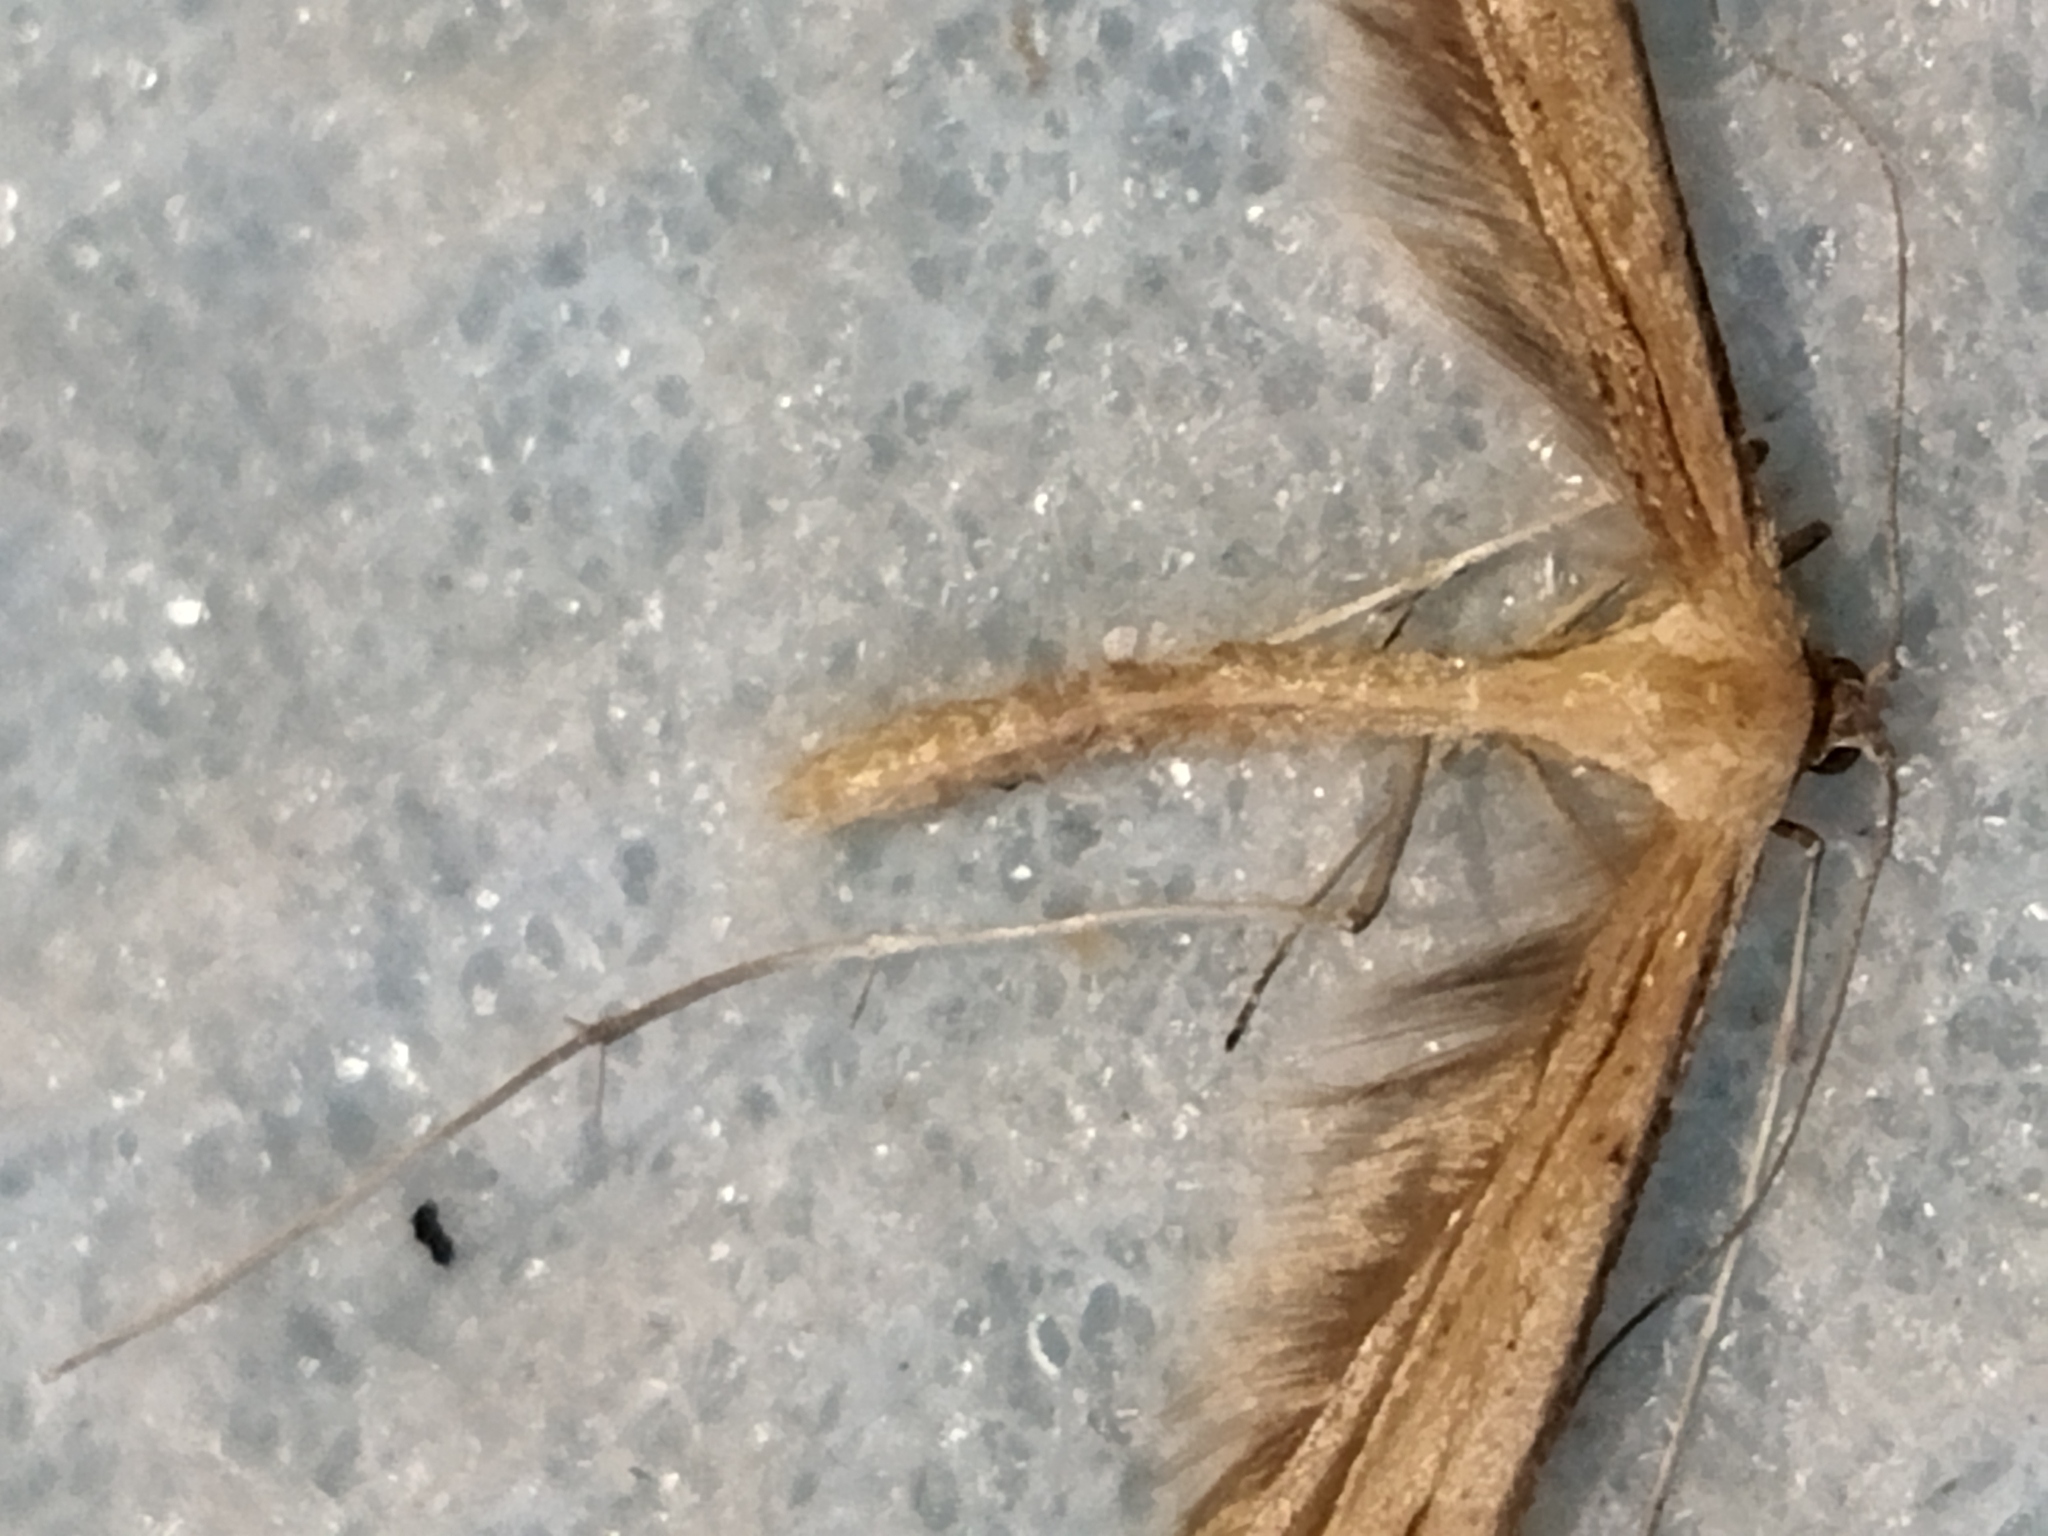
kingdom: Animalia
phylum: Arthropoda
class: Insecta
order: Lepidoptera
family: Pterophoridae
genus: Emmelina
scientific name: Emmelina monodactyla
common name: Common plume
